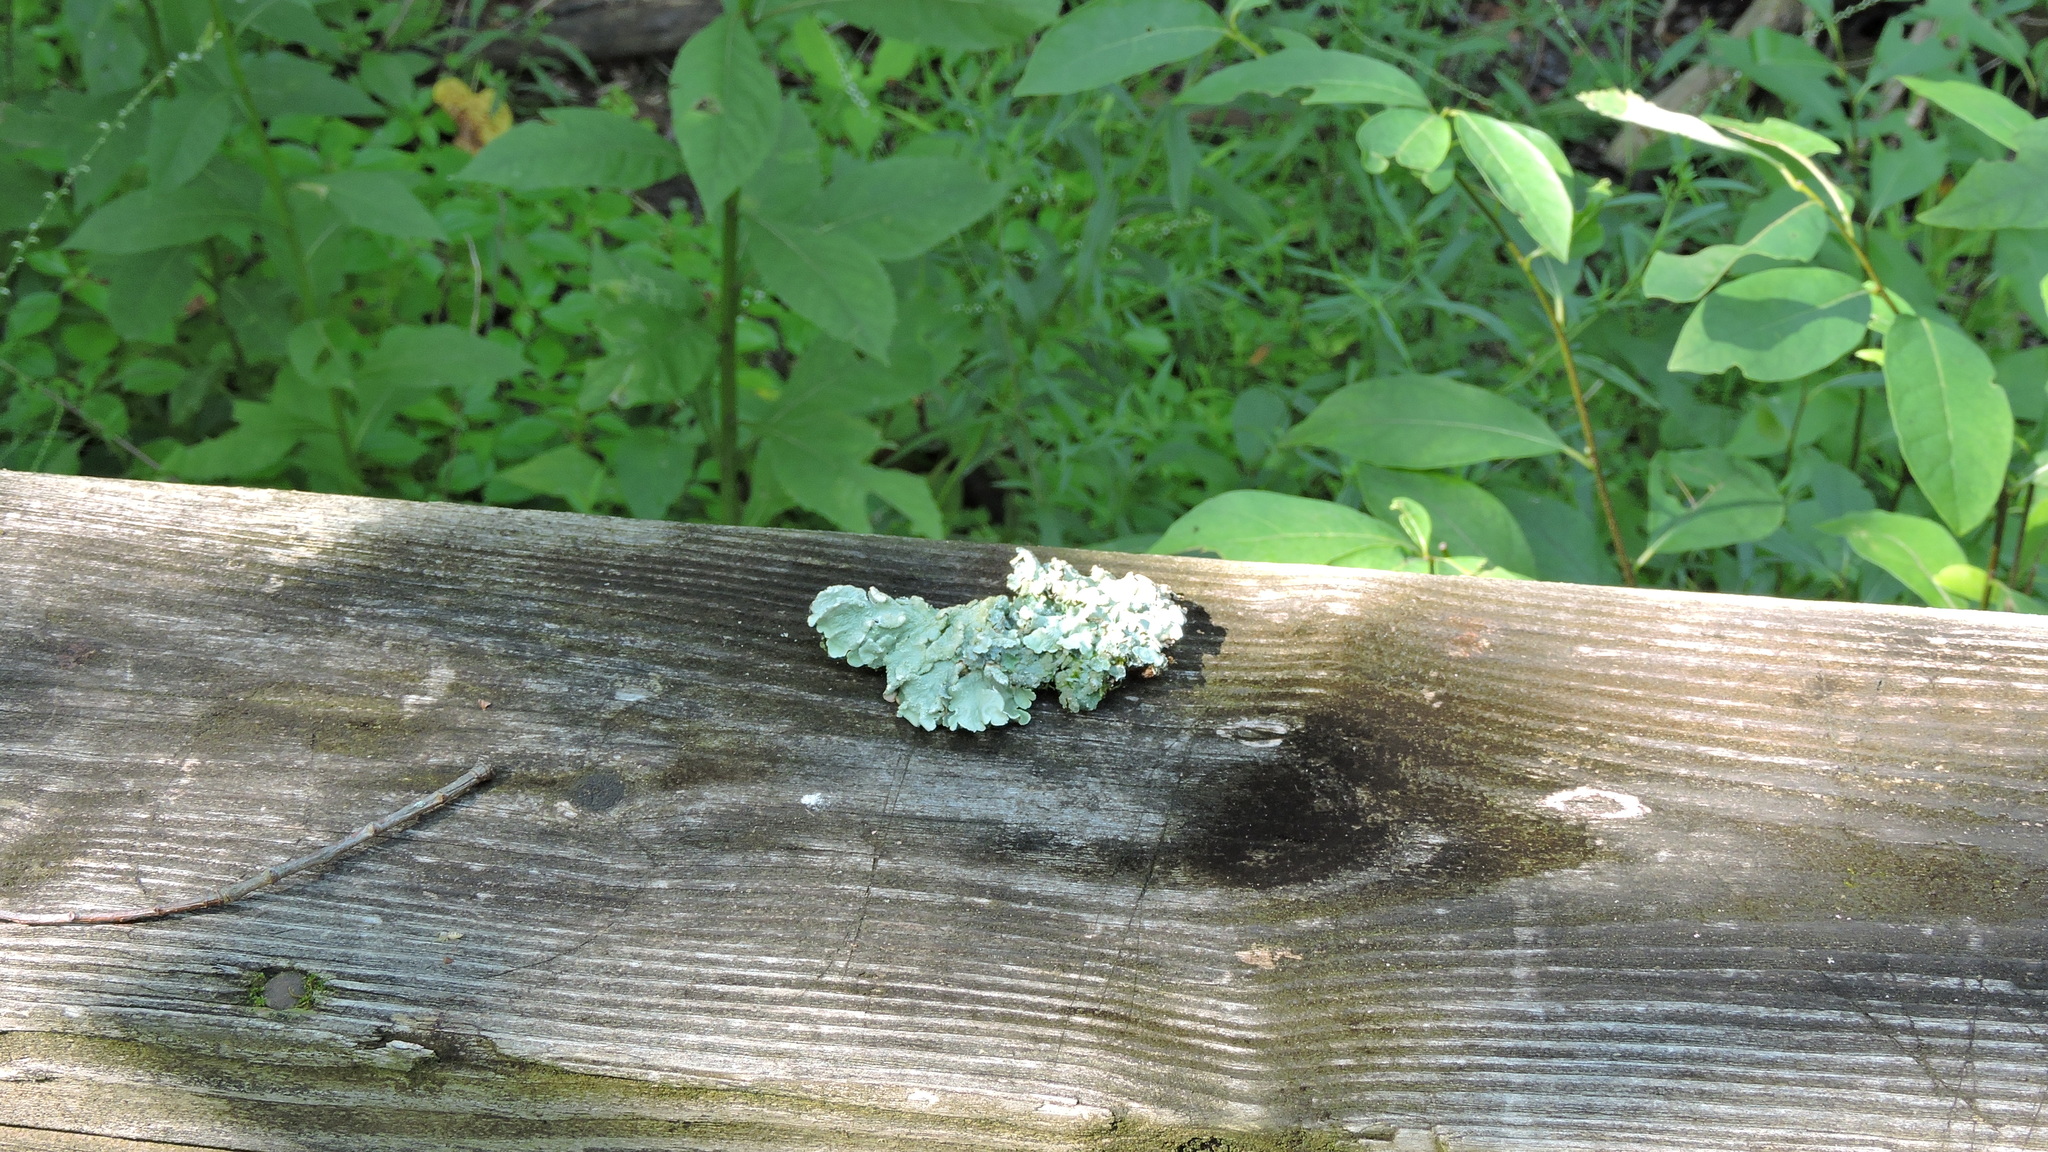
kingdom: Fungi
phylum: Ascomycota
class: Lecanoromycetes
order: Lecanorales
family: Parmeliaceae
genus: Flavoparmelia
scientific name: Flavoparmelia caperata
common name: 40-mile per hour lichen
